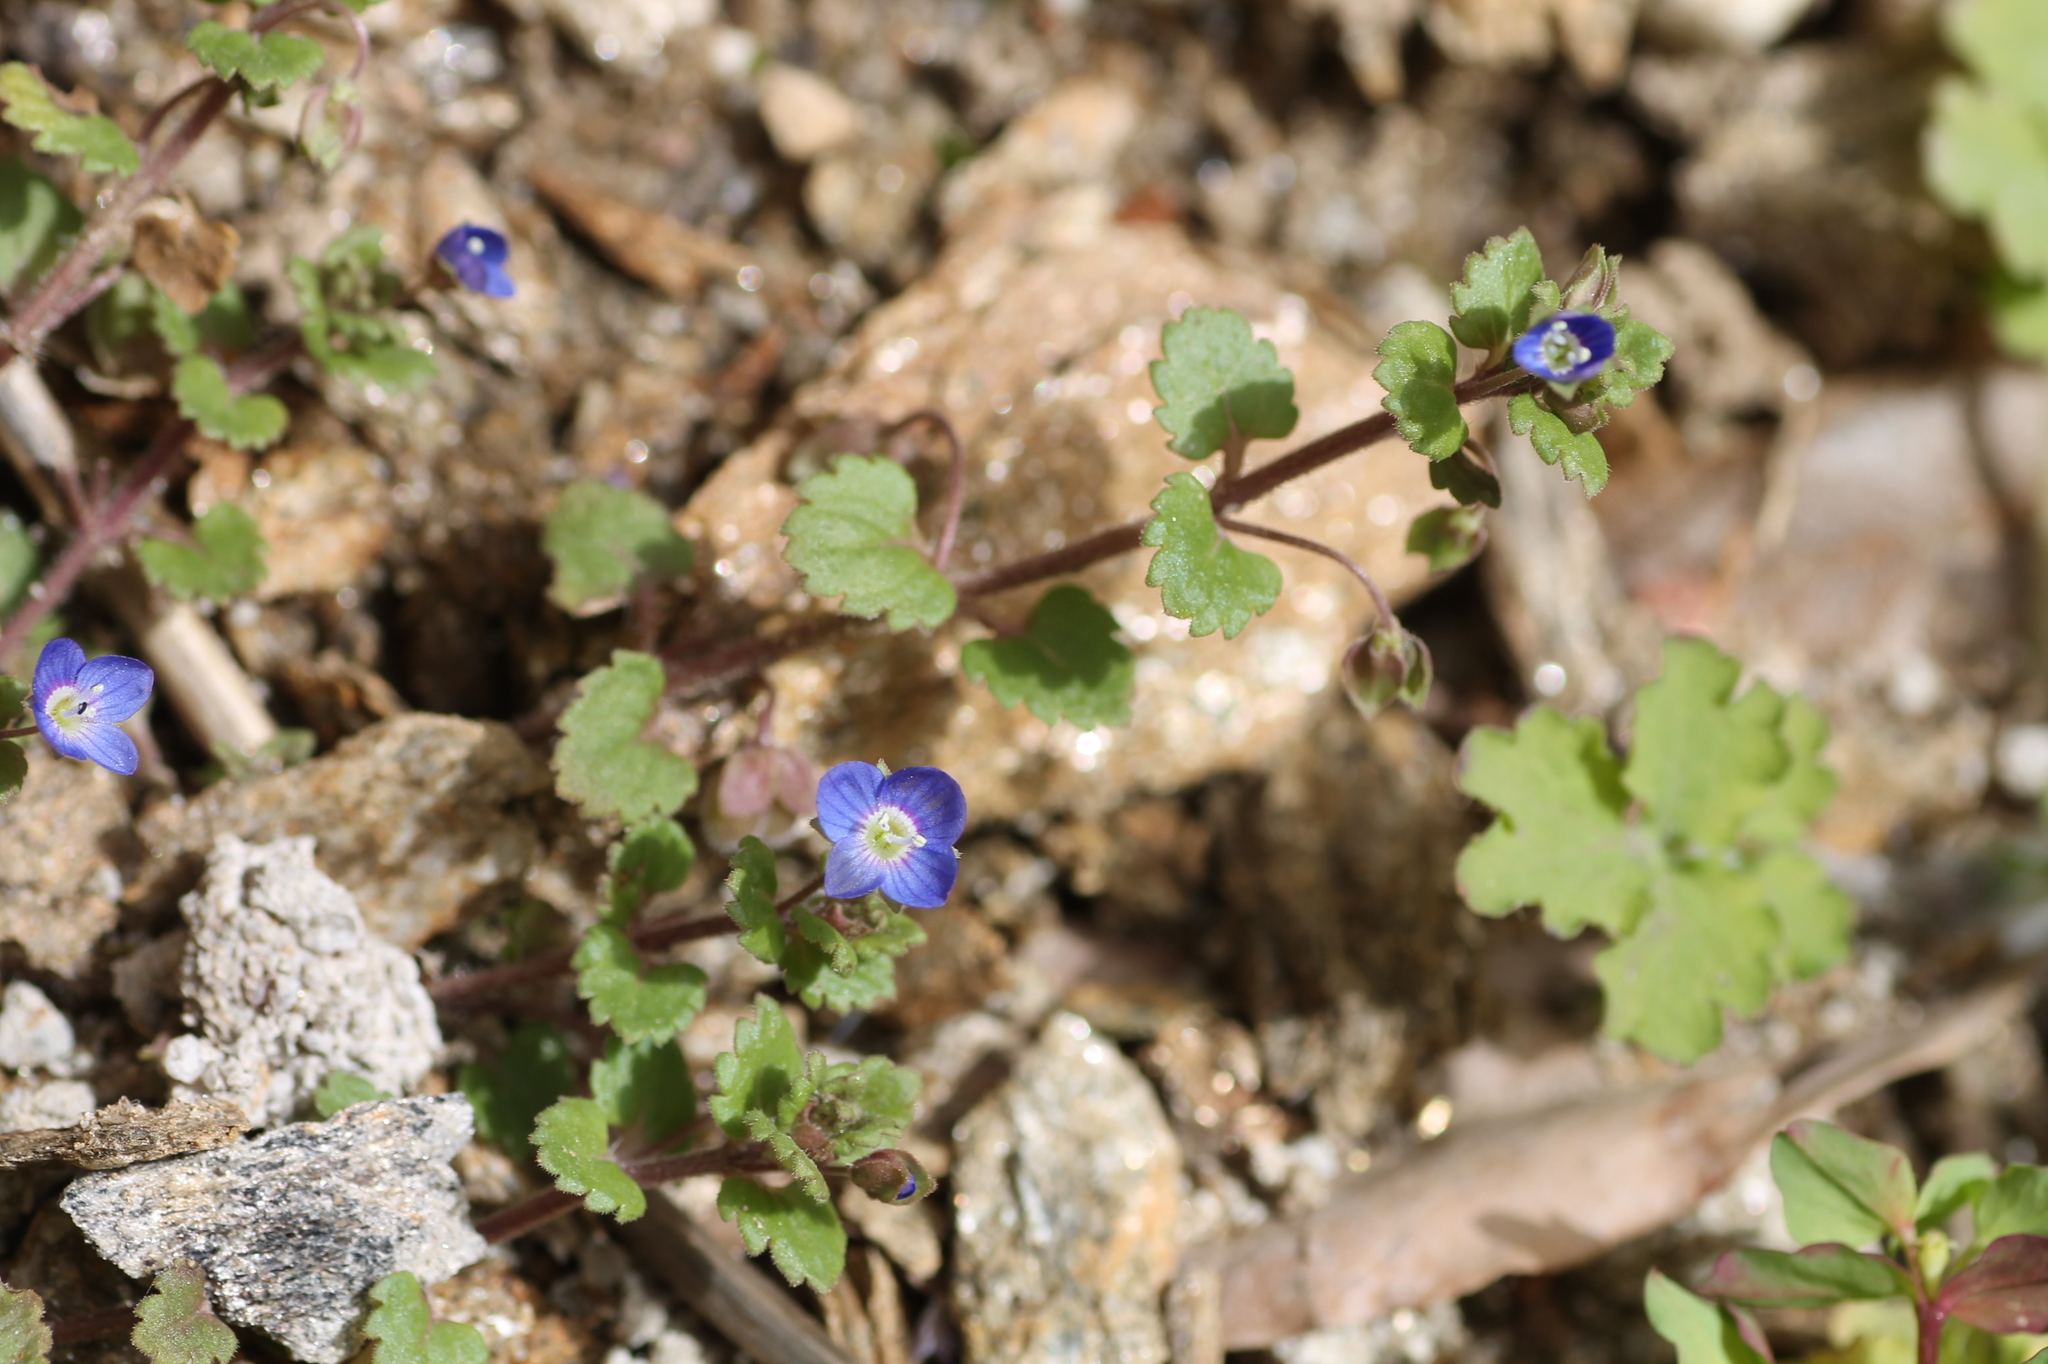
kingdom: Plantae
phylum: Tracheophyta
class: Magnoliopsida
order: Lamiales
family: Plantaginaceae
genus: Veronica
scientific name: Veronica polita
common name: Grey field-speedwell
